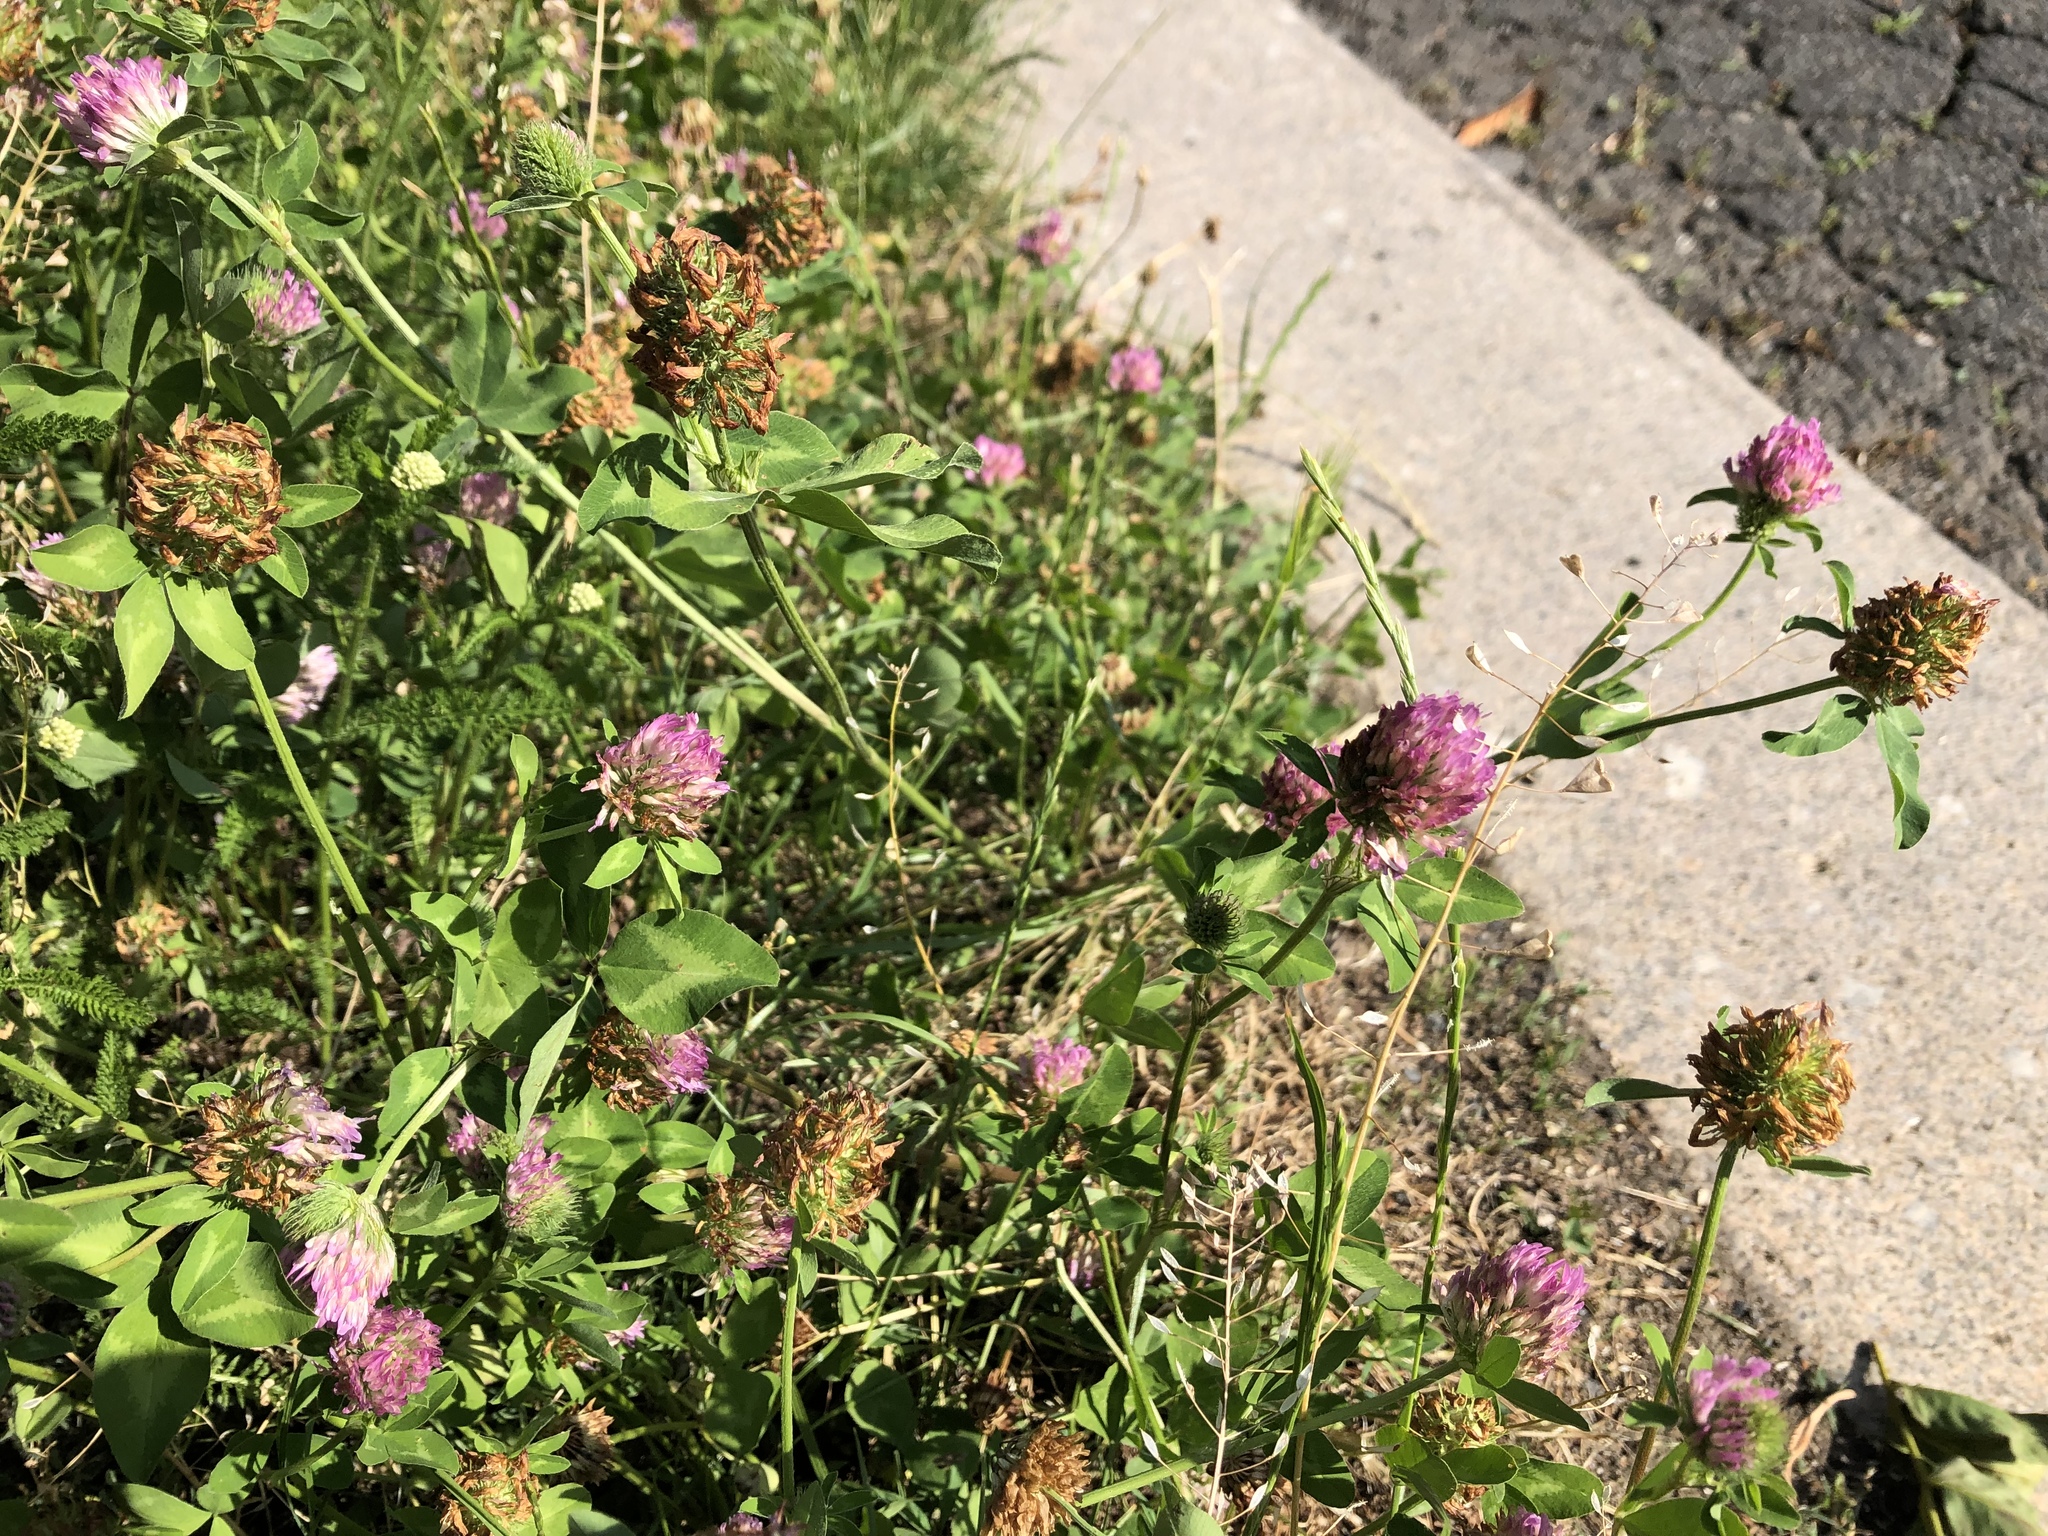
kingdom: Plantae
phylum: Tracheophyta
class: Magnoliopsida
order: Fabales
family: Fabaceae
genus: Trifolium
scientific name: Trifolium pratense
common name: Red clover
